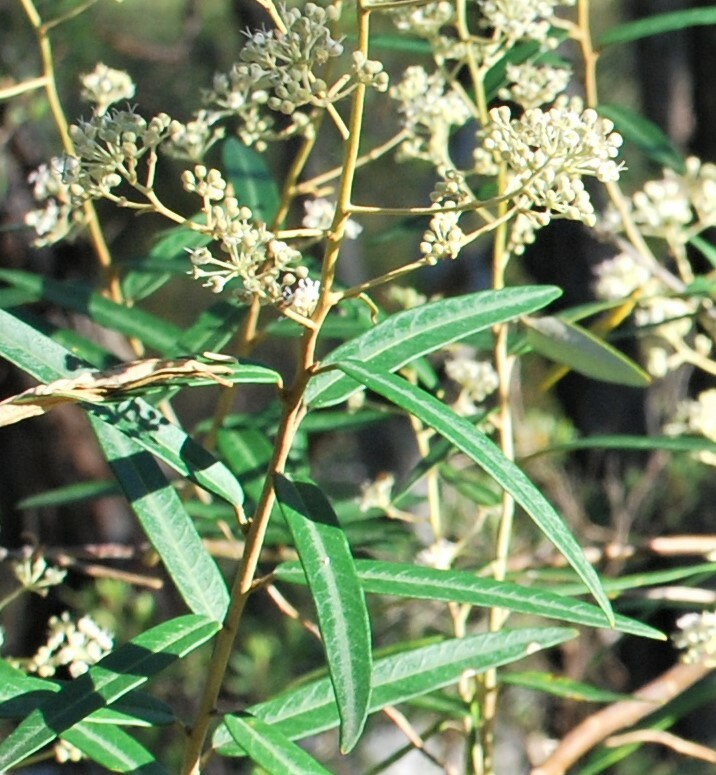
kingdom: Plantae
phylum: Tracheophyta
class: Magnoliopsida
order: Apiales
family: Araliaceae
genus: Astrotricha
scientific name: Astrotricha longifolia
